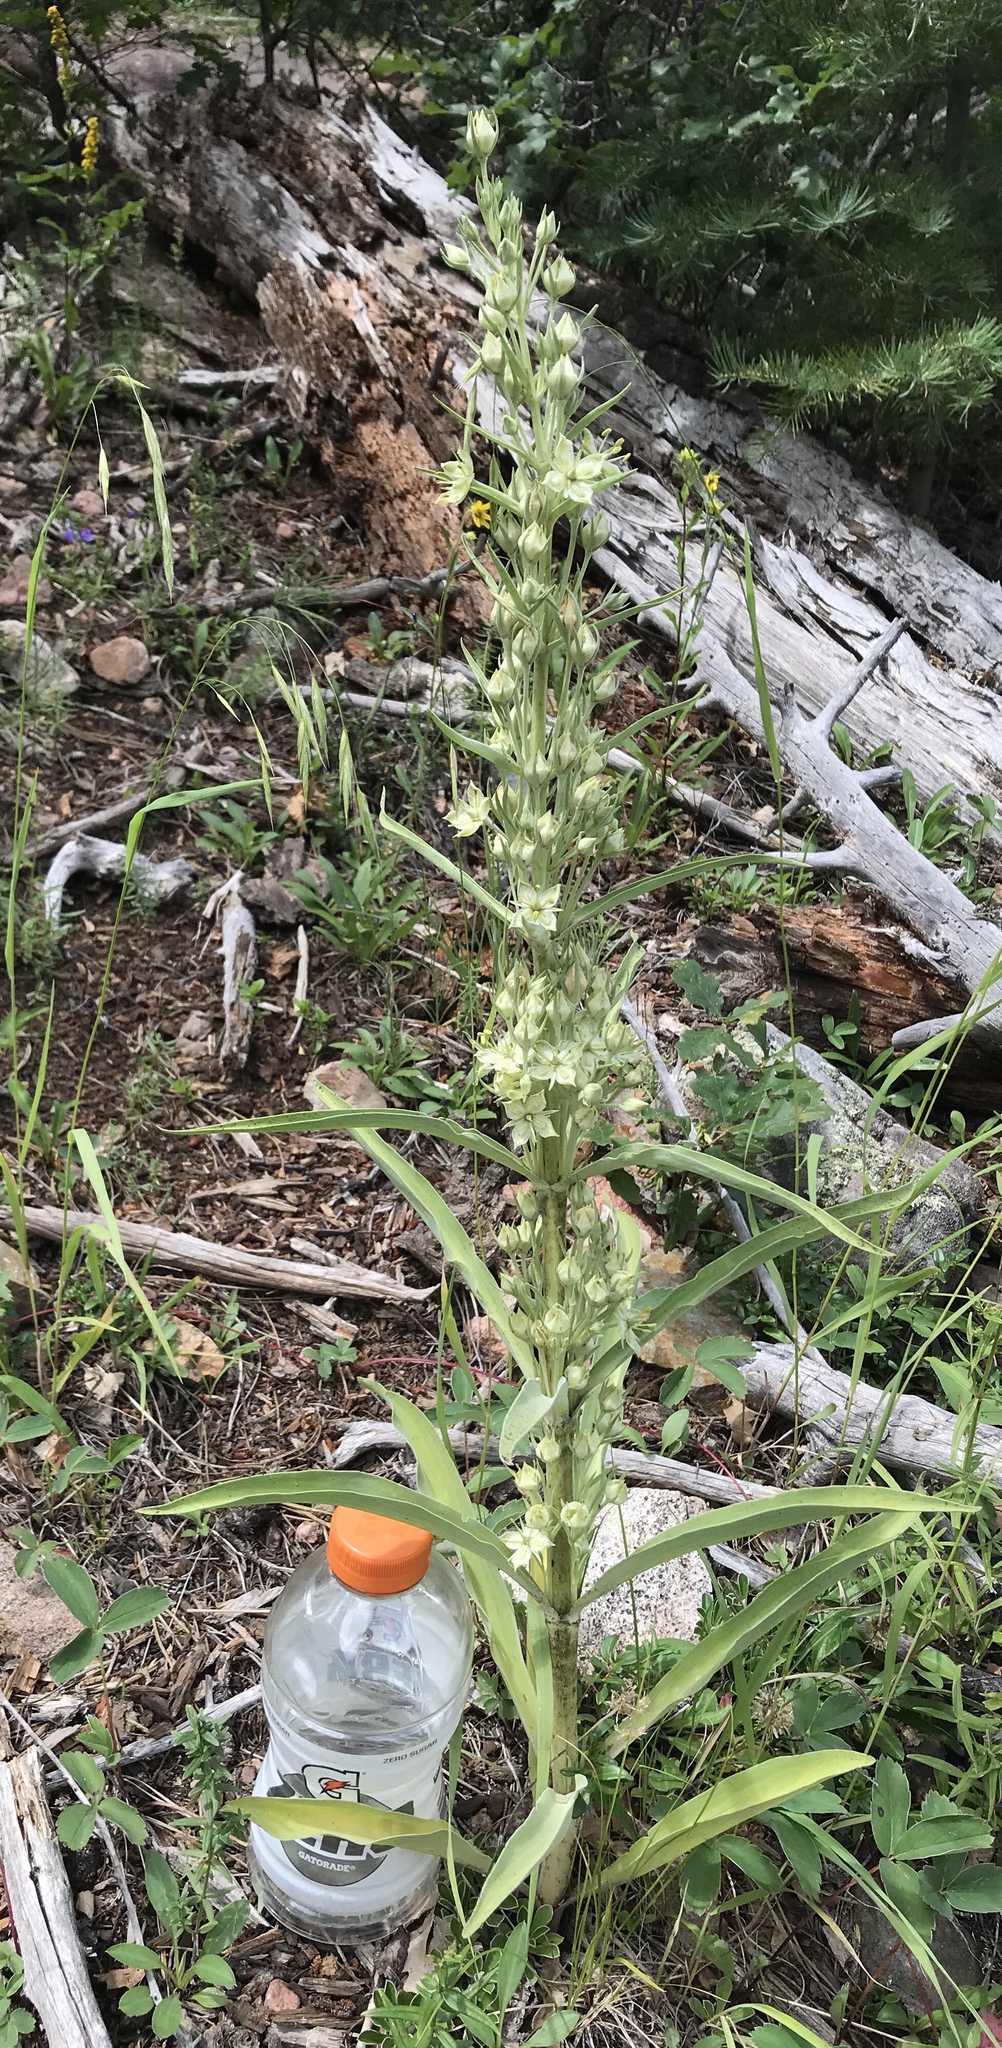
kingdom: Plantae
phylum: Tracheophyta
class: Magnoliopsida
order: Gentianales
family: Gentianaceae
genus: Frasera
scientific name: Frasera speciosa
